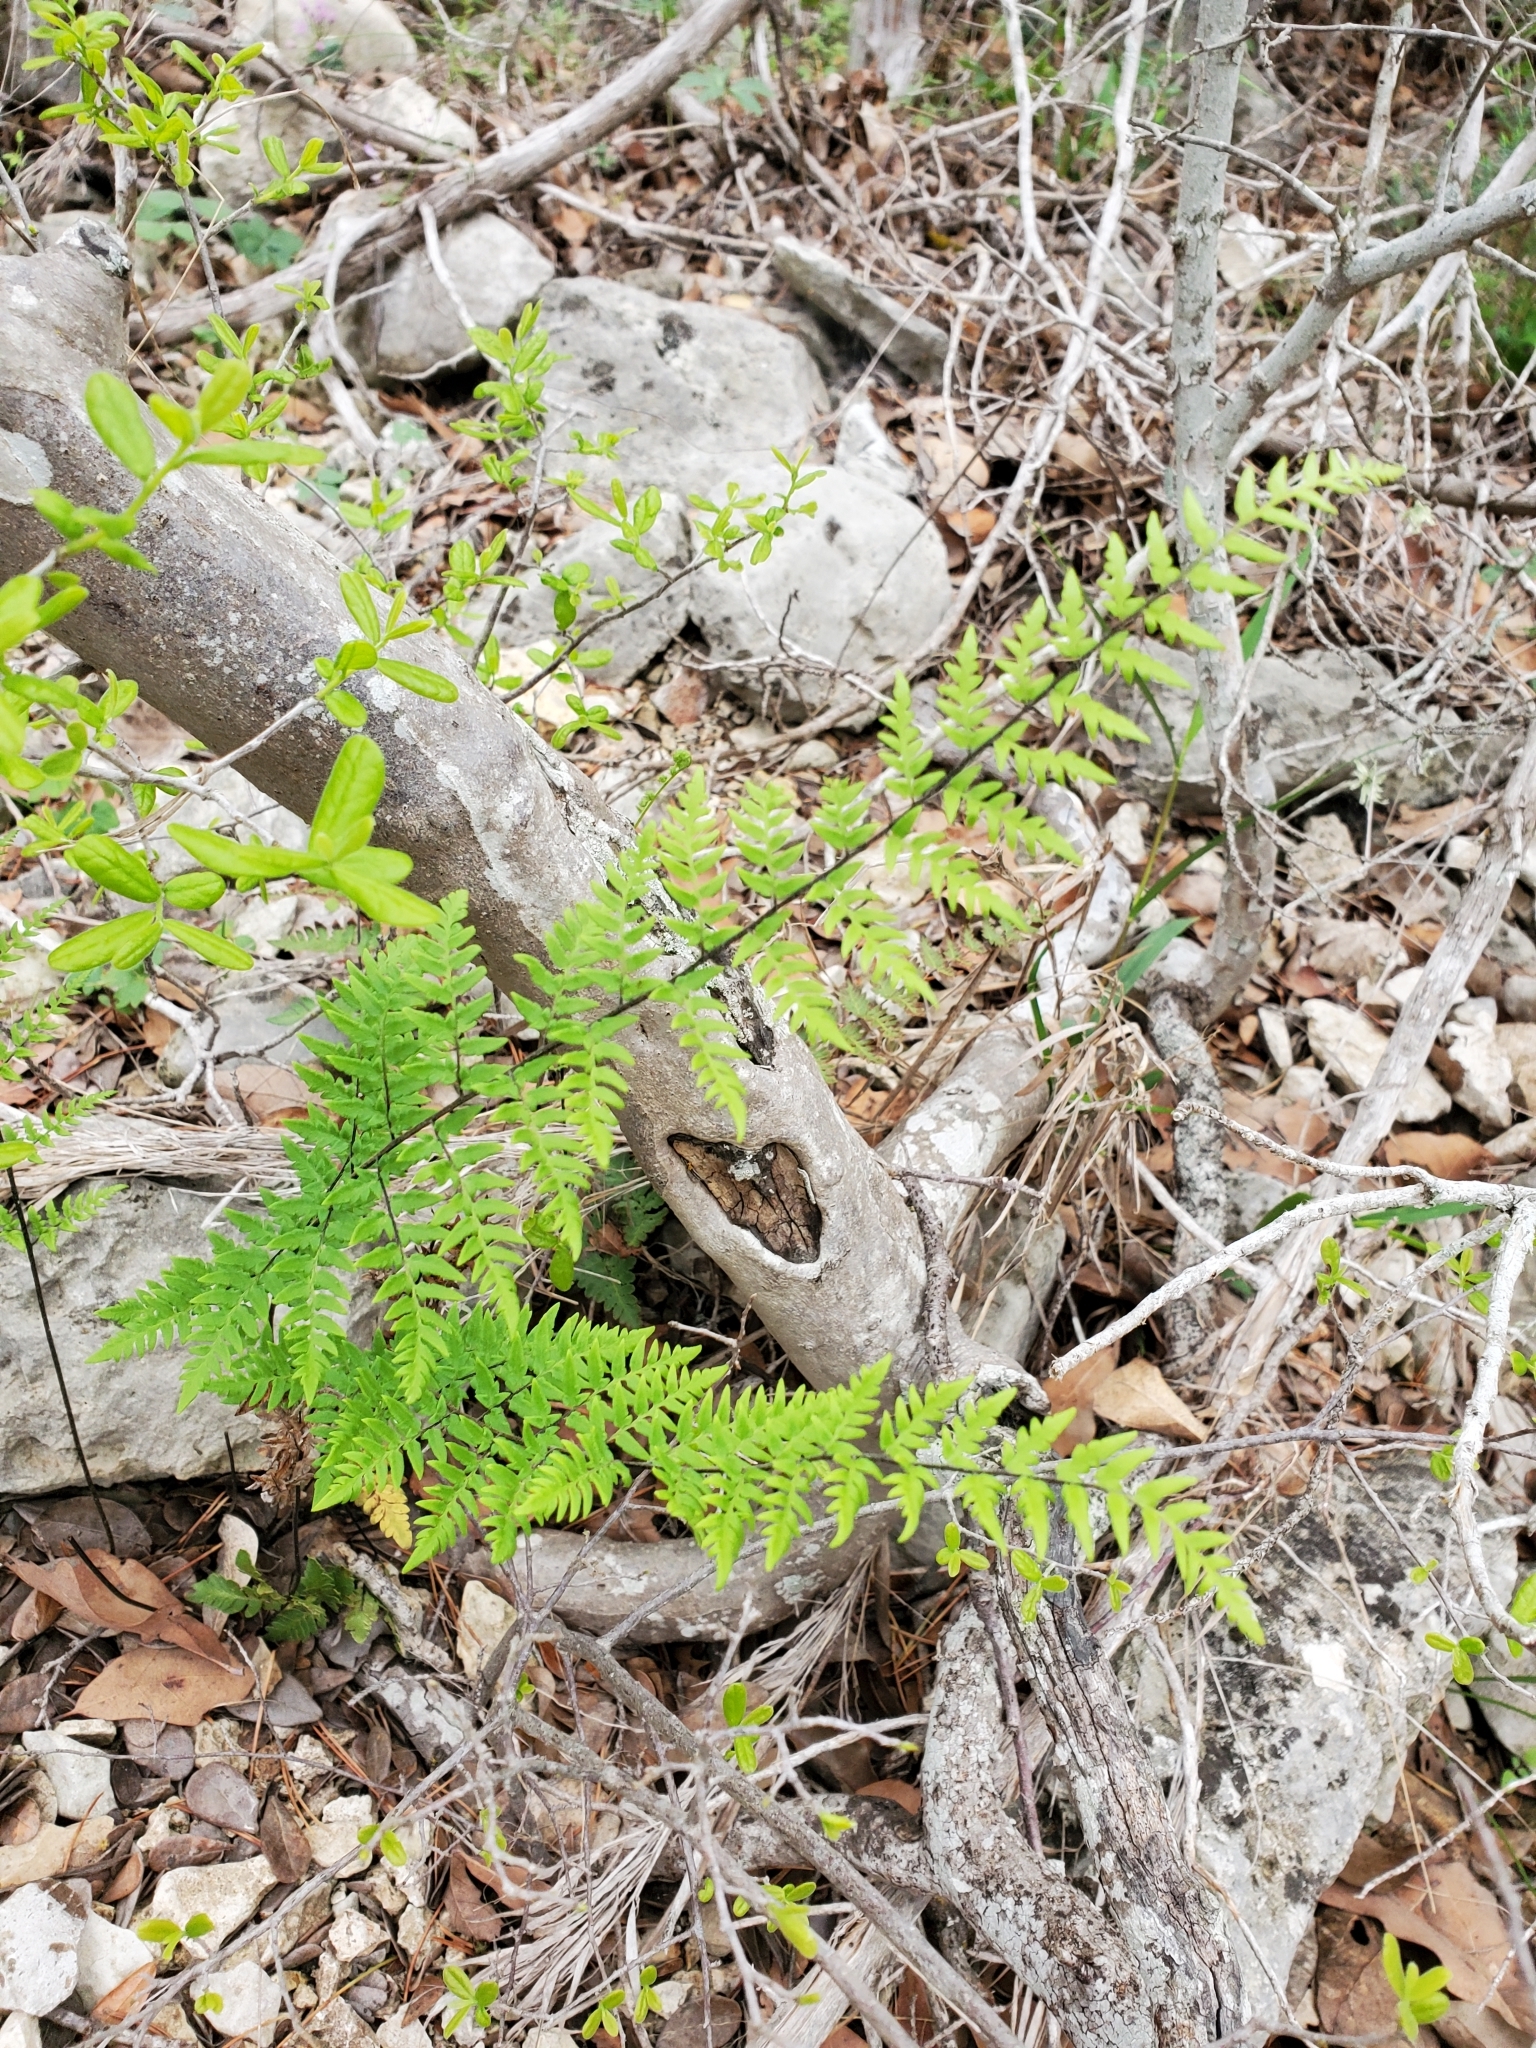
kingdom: Plantae
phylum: Tracheophyta
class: Polypodiopsida
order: Polypodiales
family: Pteridaceae
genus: Myriopteris
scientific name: Myriopteris alabamensis
